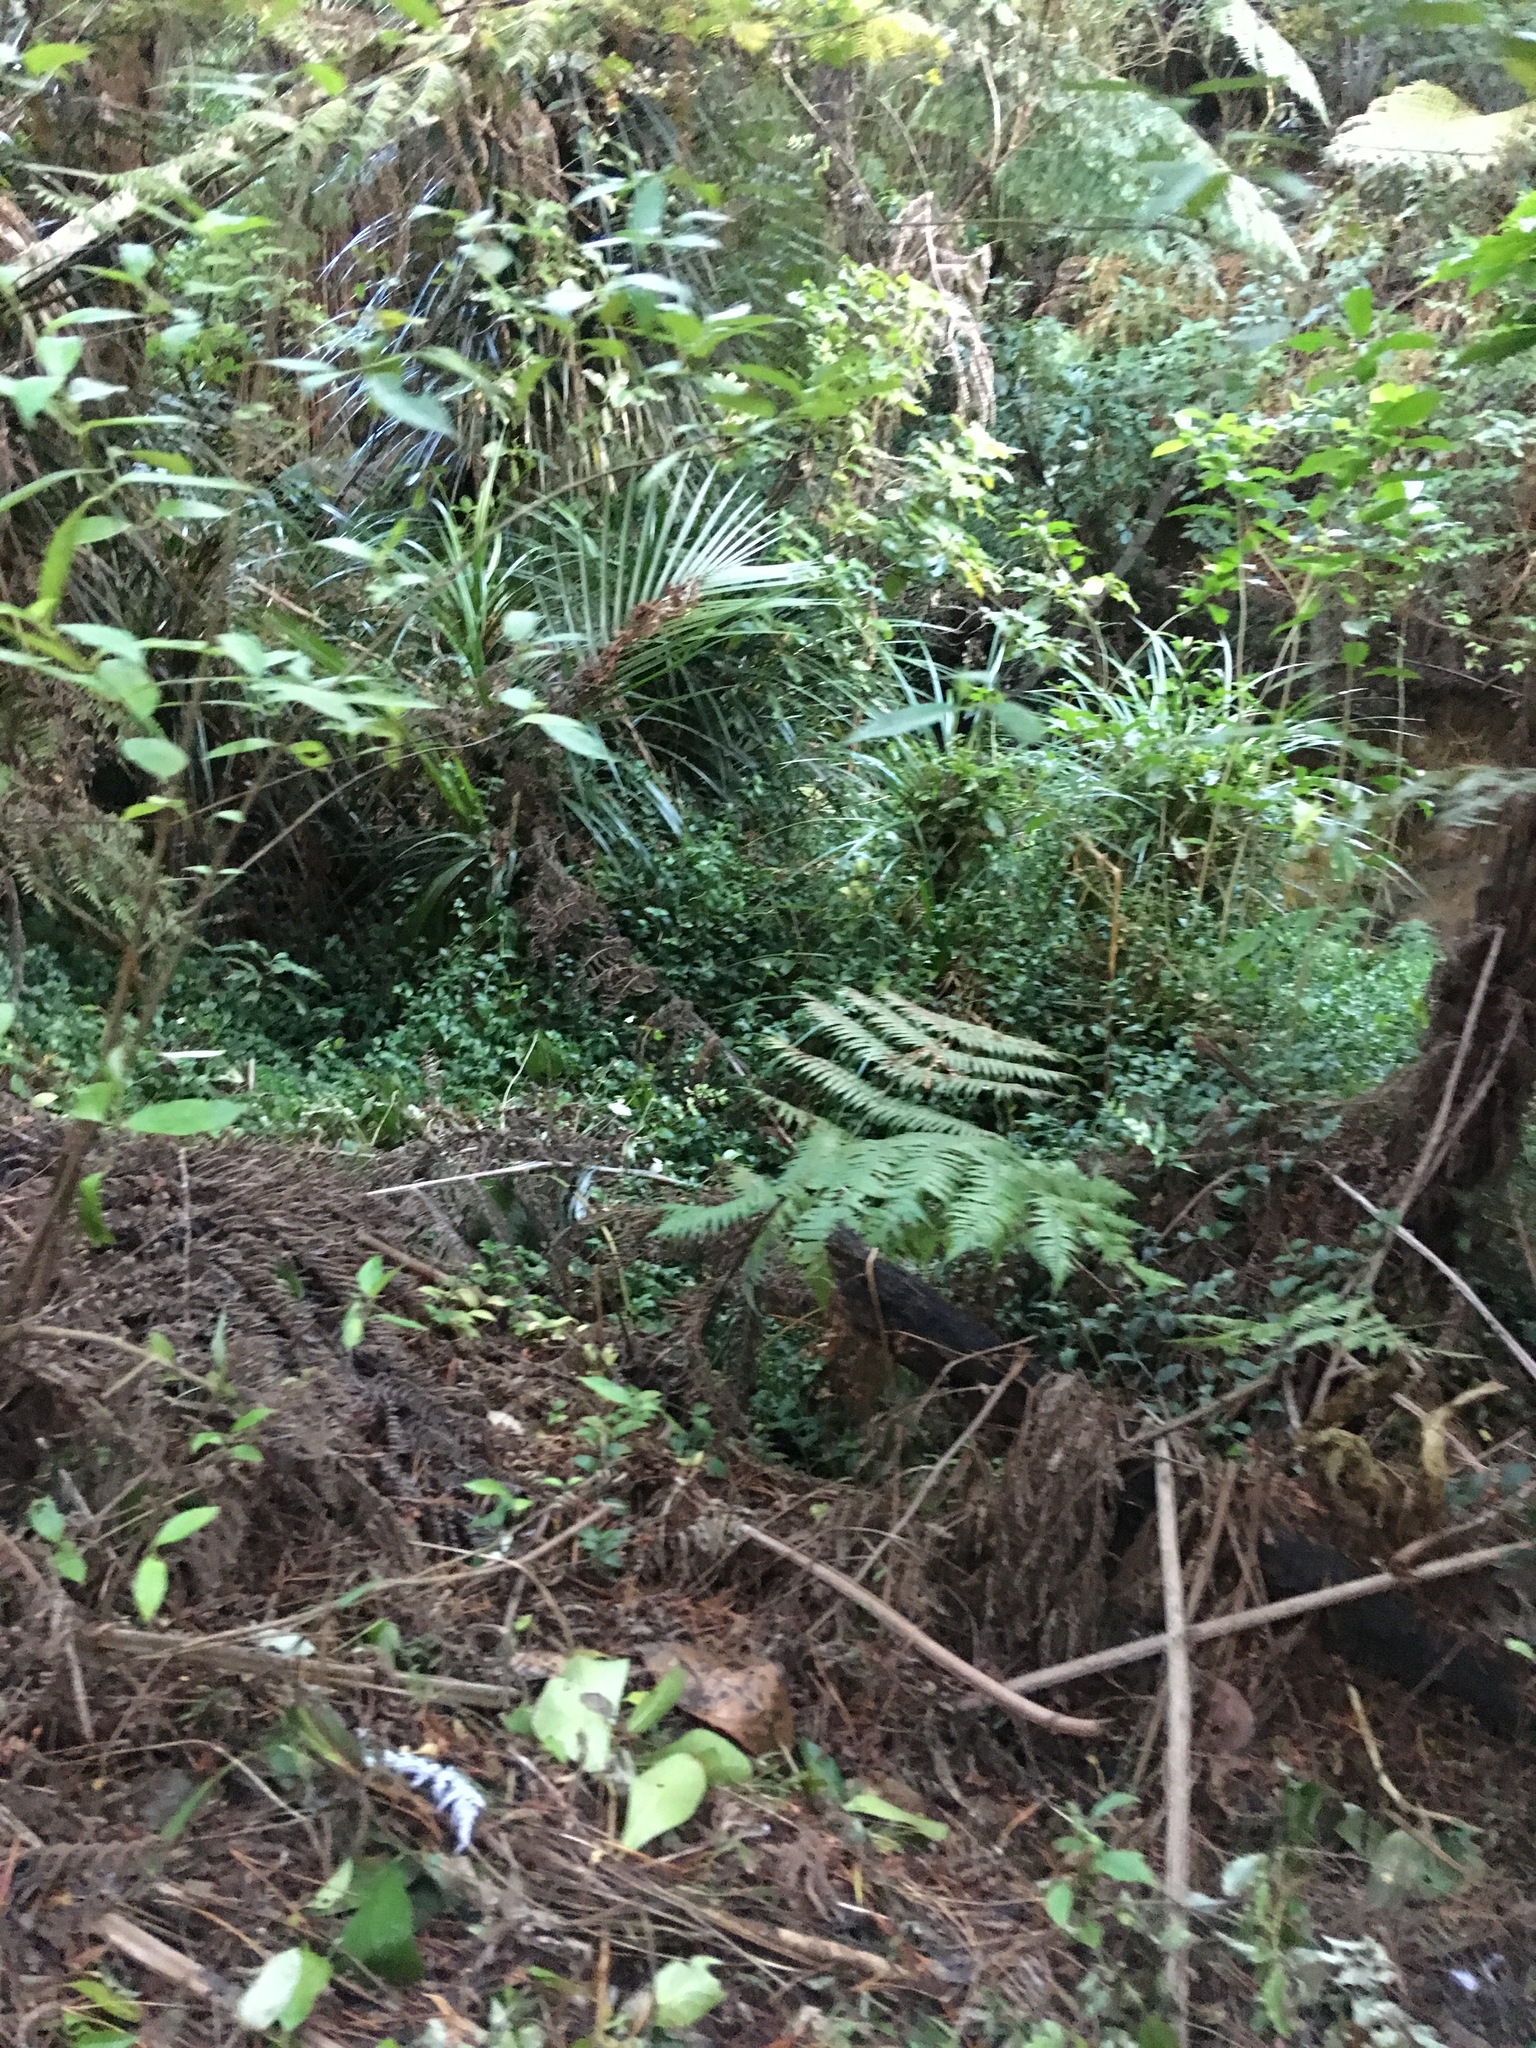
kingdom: Plantae
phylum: Tracheophyta
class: Liliopsida
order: Arecales
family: Arecaceae
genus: Rhopalostylis
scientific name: Rhopalostylis sapida
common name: Feather-duster palm
